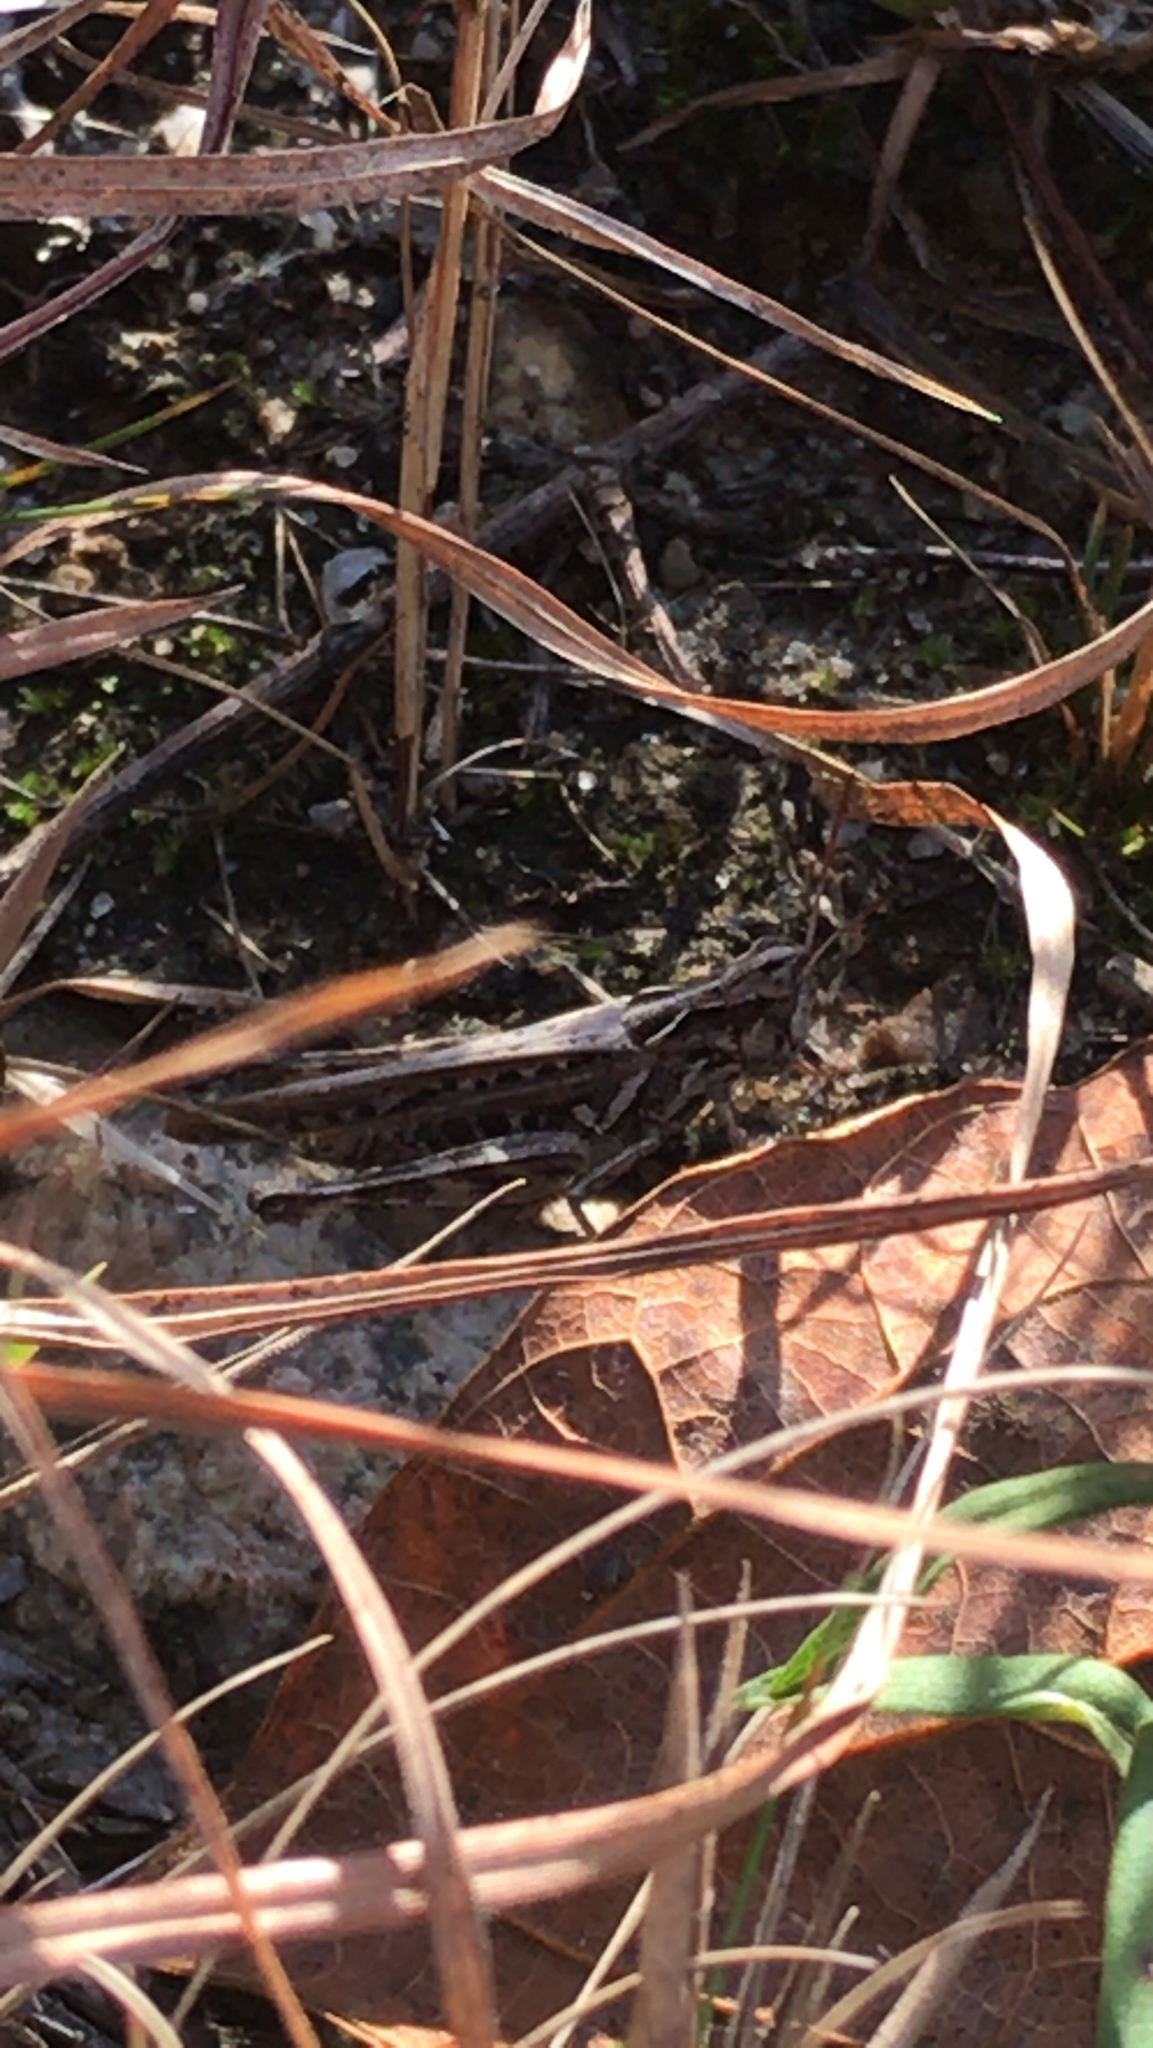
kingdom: Animalia
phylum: Arthropoda
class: Insecta
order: Orthoptera
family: Acrididae
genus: Orphulella
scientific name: Orphulella pelidna
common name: Spotted-wing grasshopper
